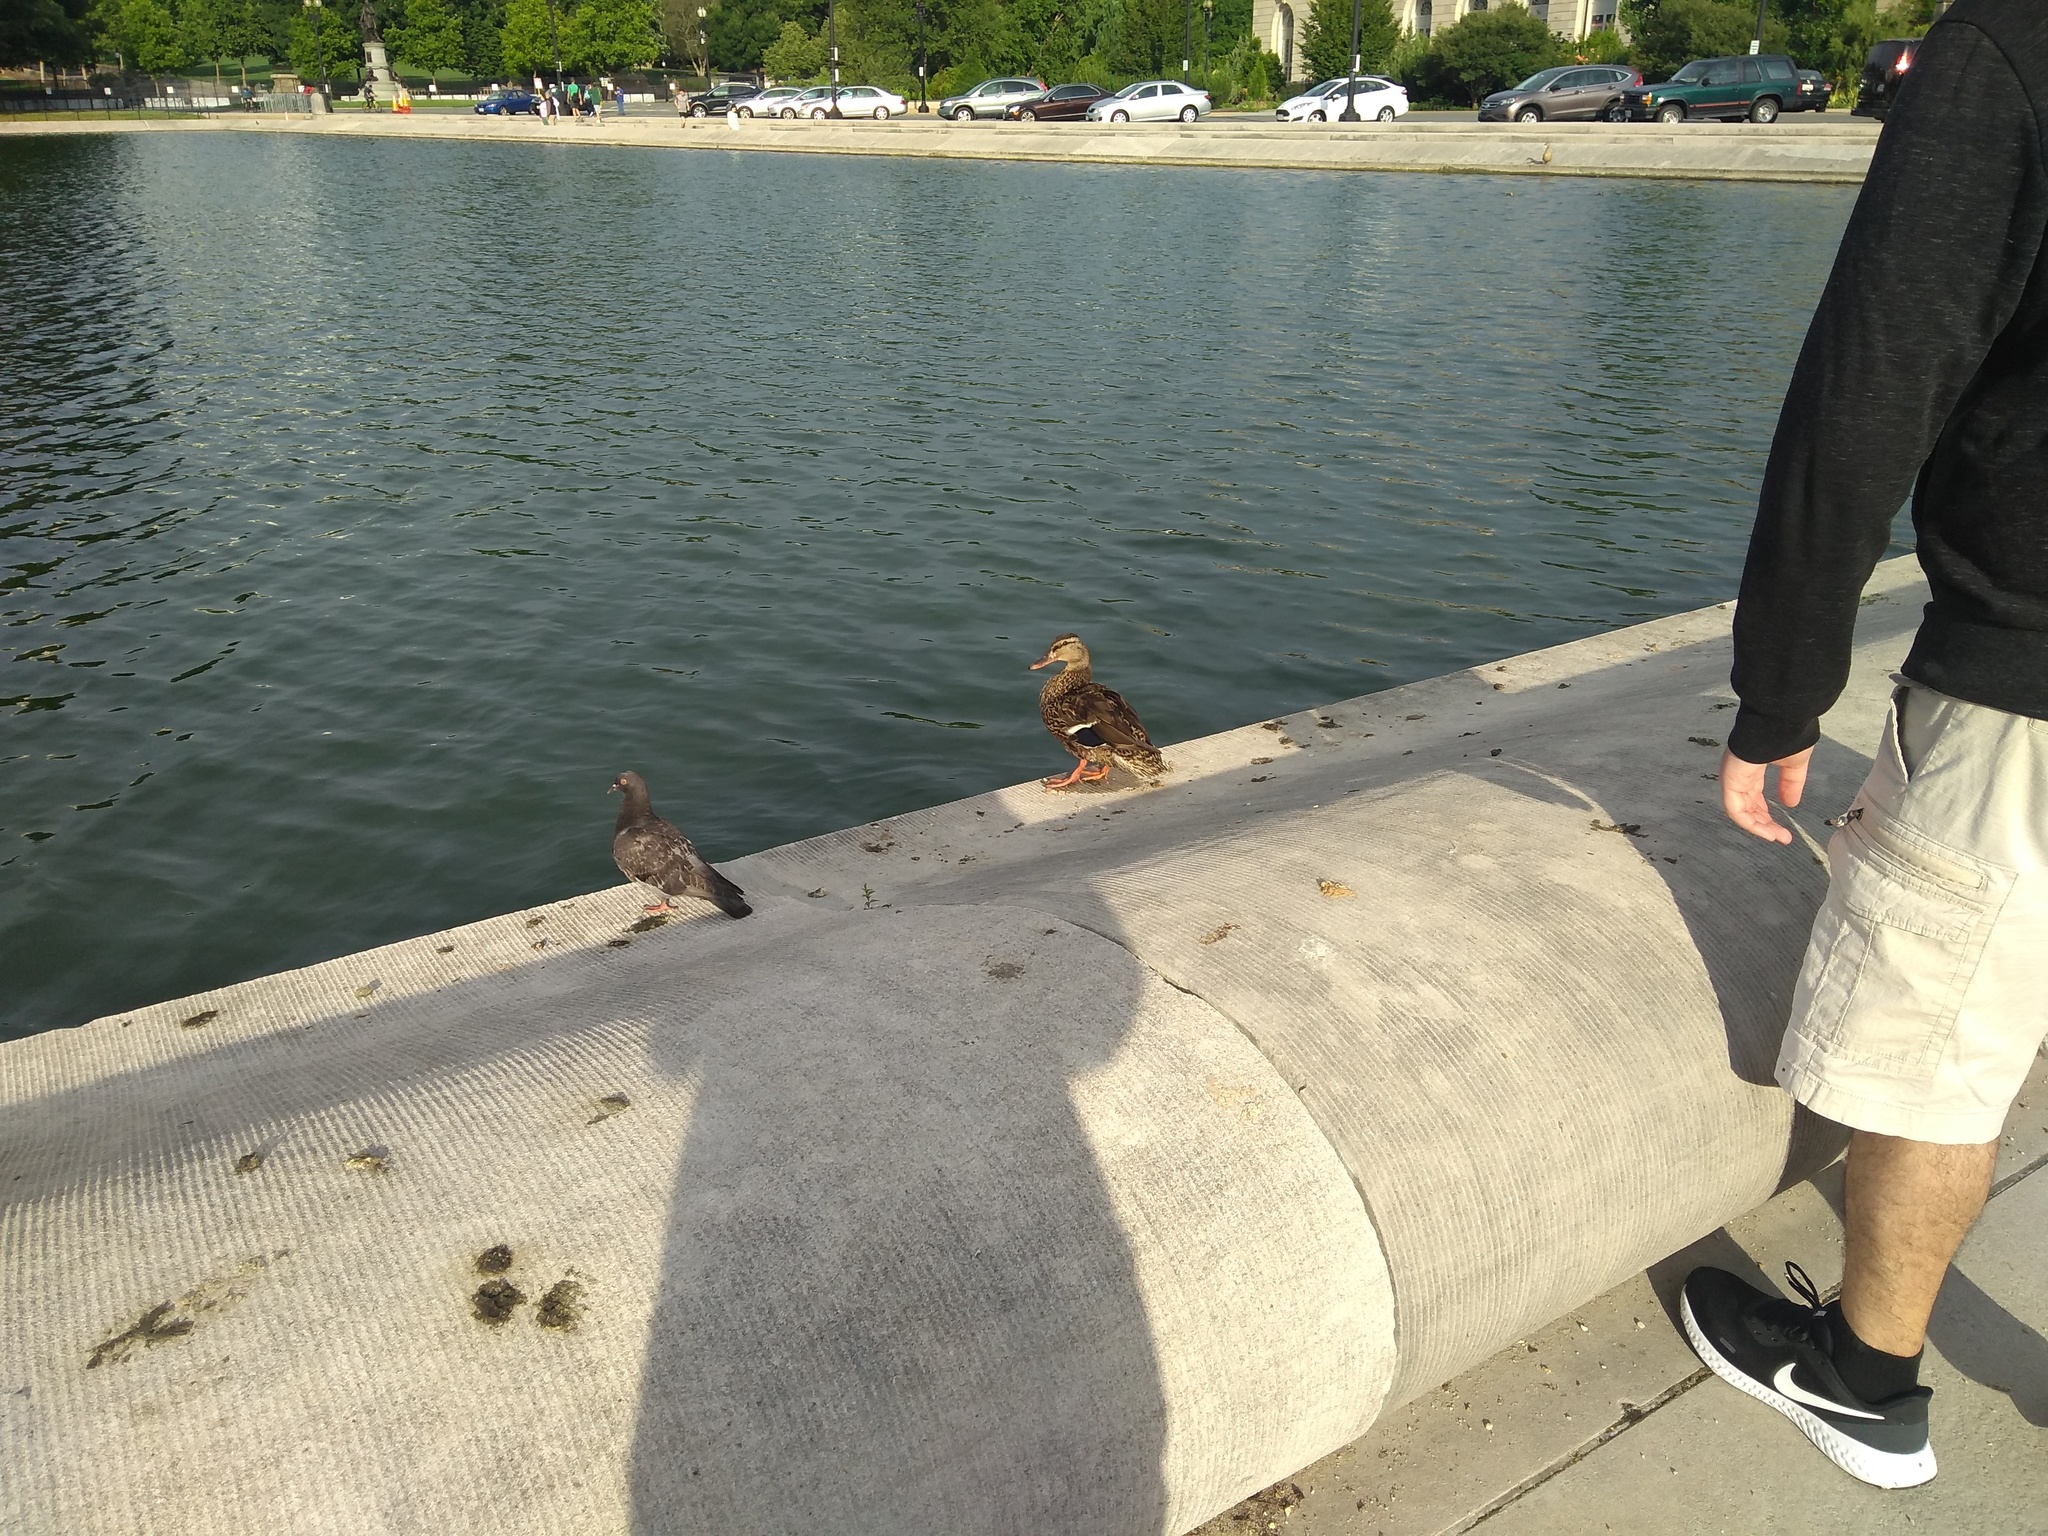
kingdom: Animalia
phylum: Chordata
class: Aves
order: Anseriformes
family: Anatidae
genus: Anas
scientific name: Anas platyrhynchos
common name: Mallard
